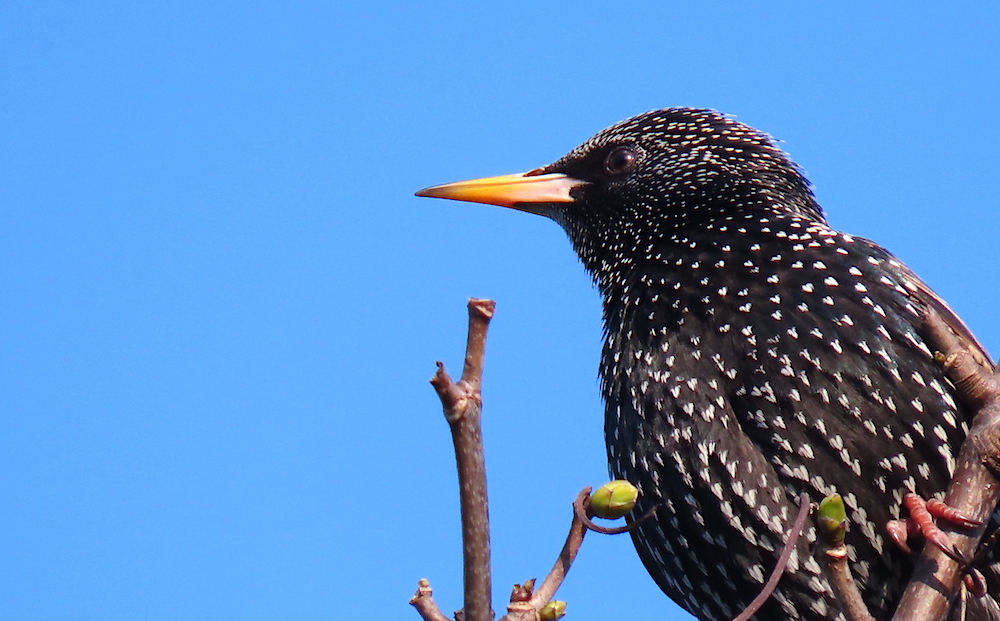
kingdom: Animalia
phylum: Chordata
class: Aves
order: Passeriformes
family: Sturnidae
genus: Sturnus
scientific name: Sturnus vulgaris
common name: Common starling
